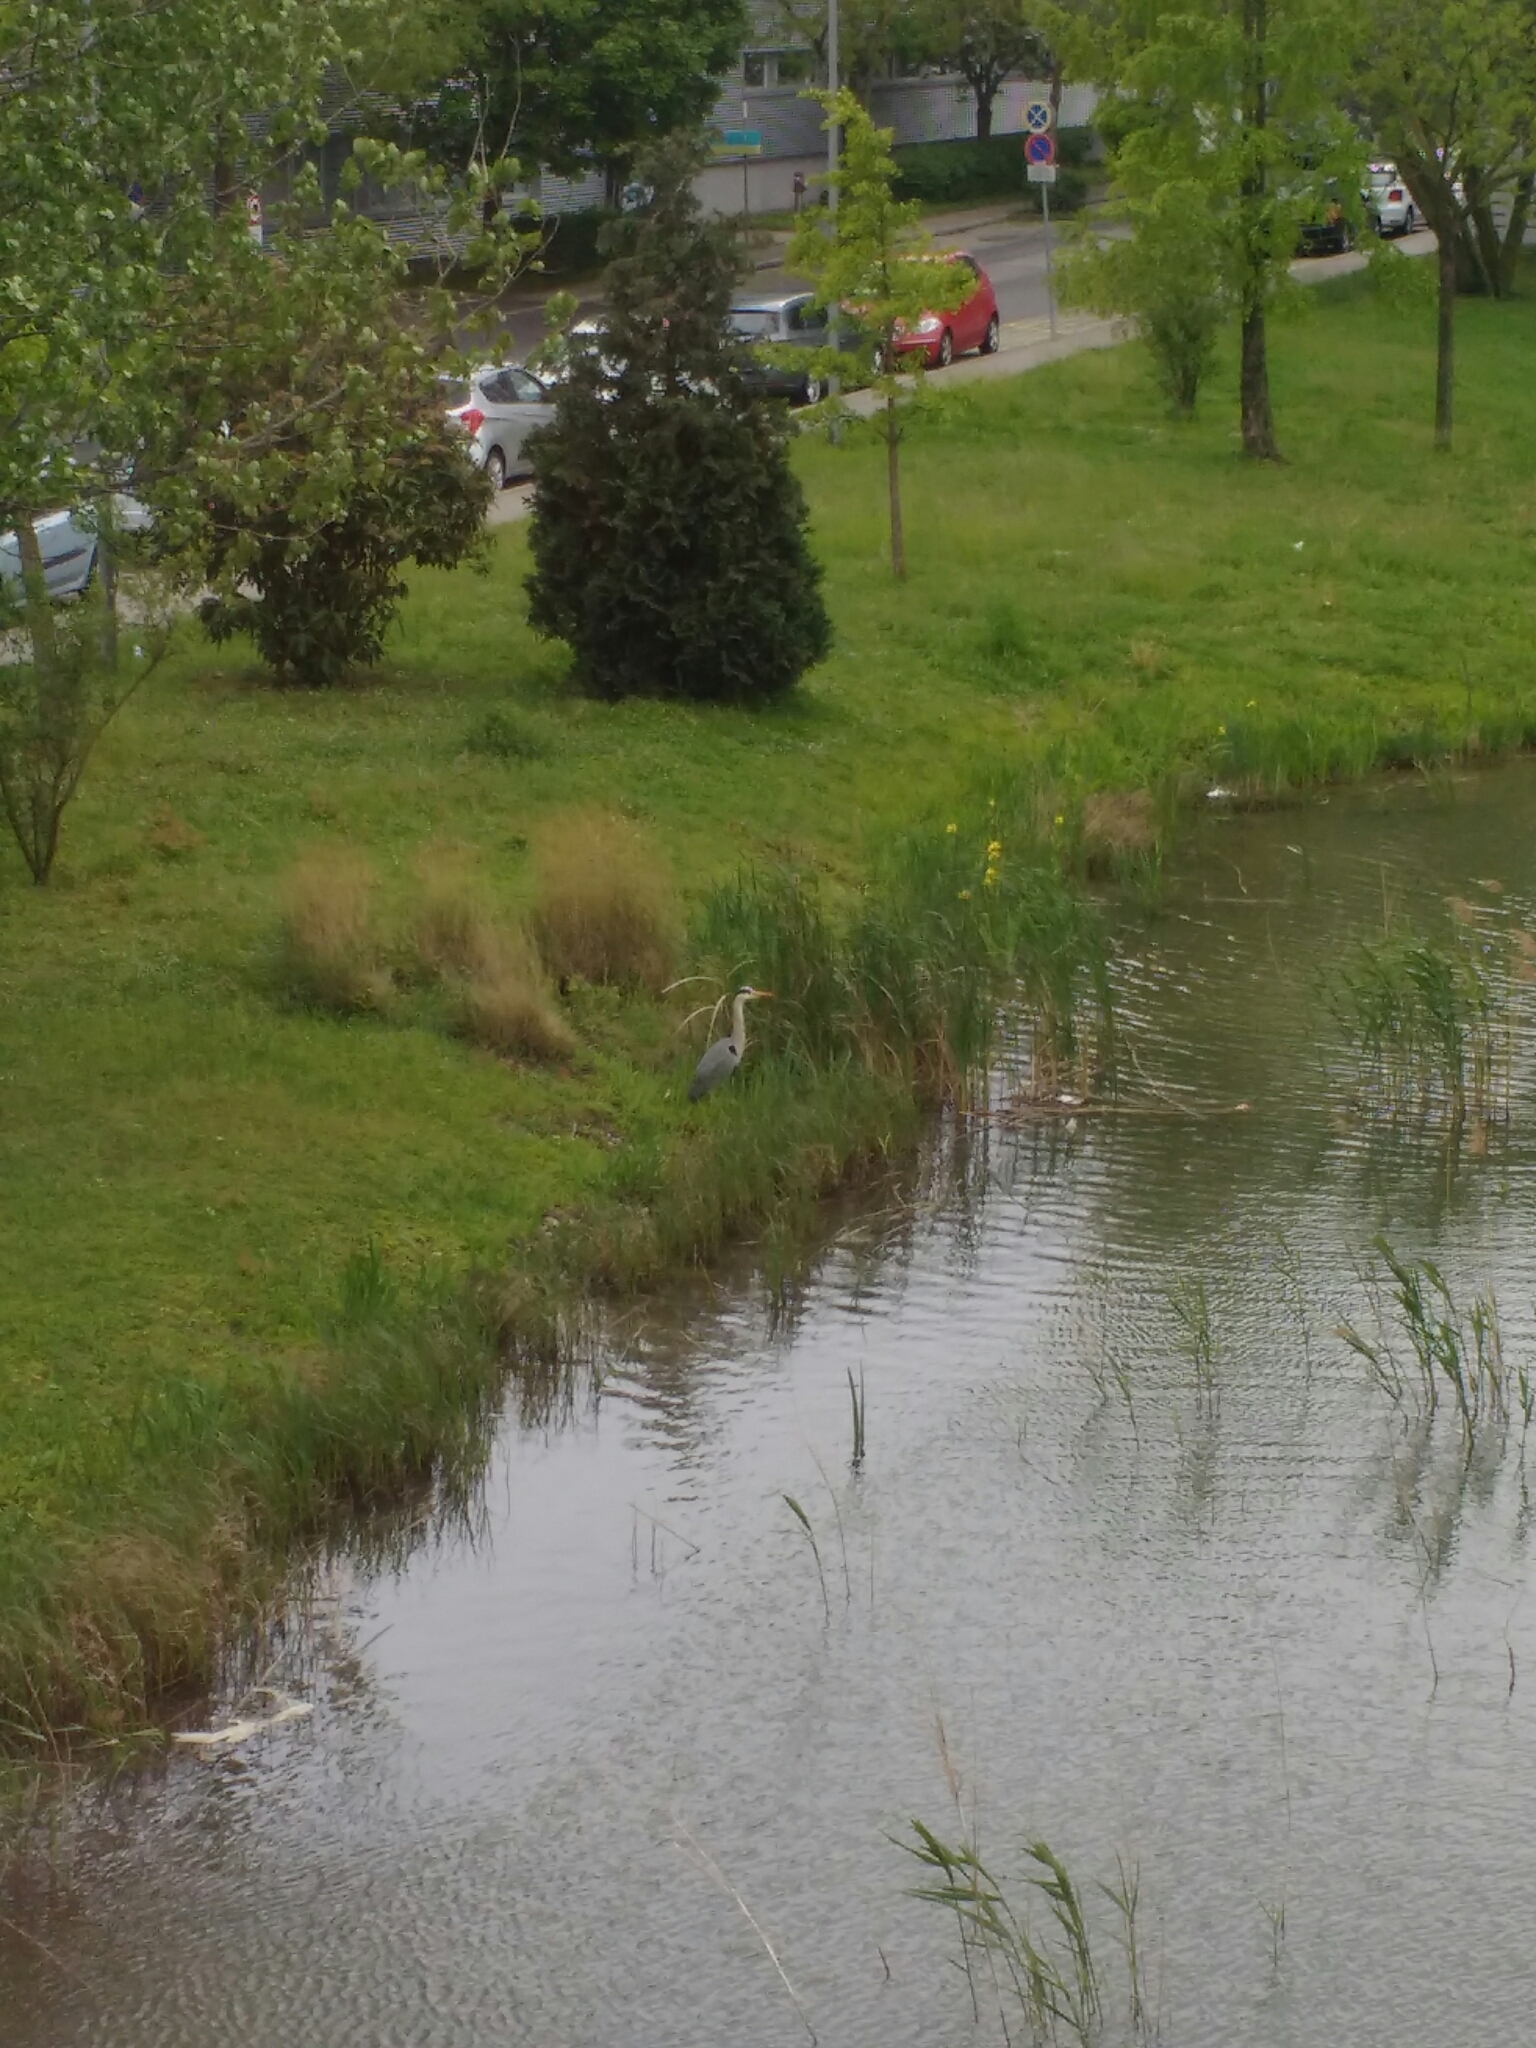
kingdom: Animalia
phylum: Chordata
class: Aves
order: Pelecaniformes
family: Ardeidae
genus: Ardea
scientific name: Ardea cinerea
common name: Grey heron
